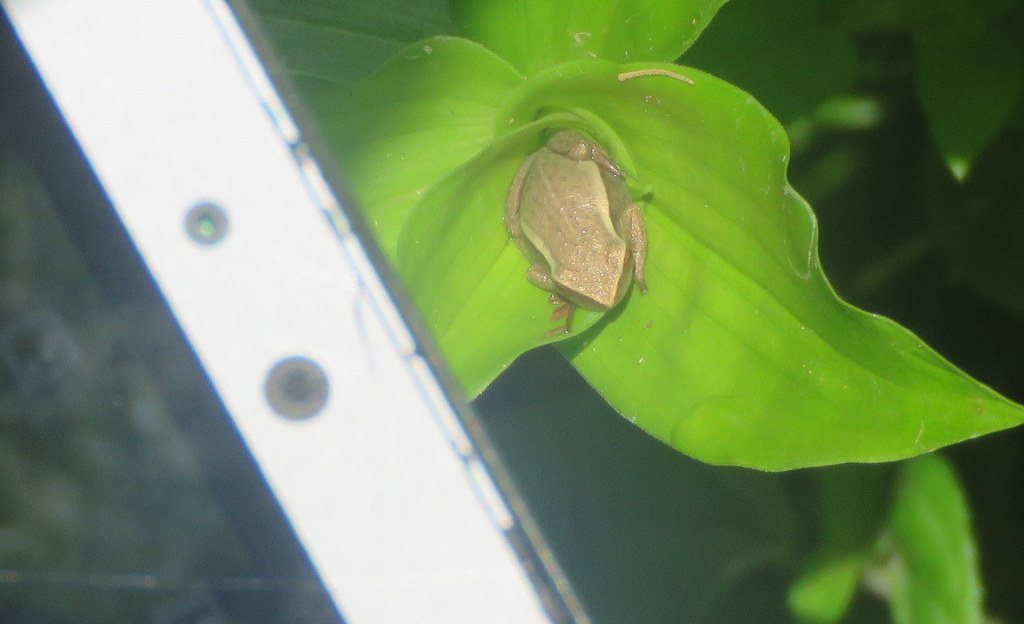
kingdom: Animalia
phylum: Chordata
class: Amphibia
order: Anura
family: Hylidae
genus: Boana
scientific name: Boana pulchella
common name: Montevideo treefrog
